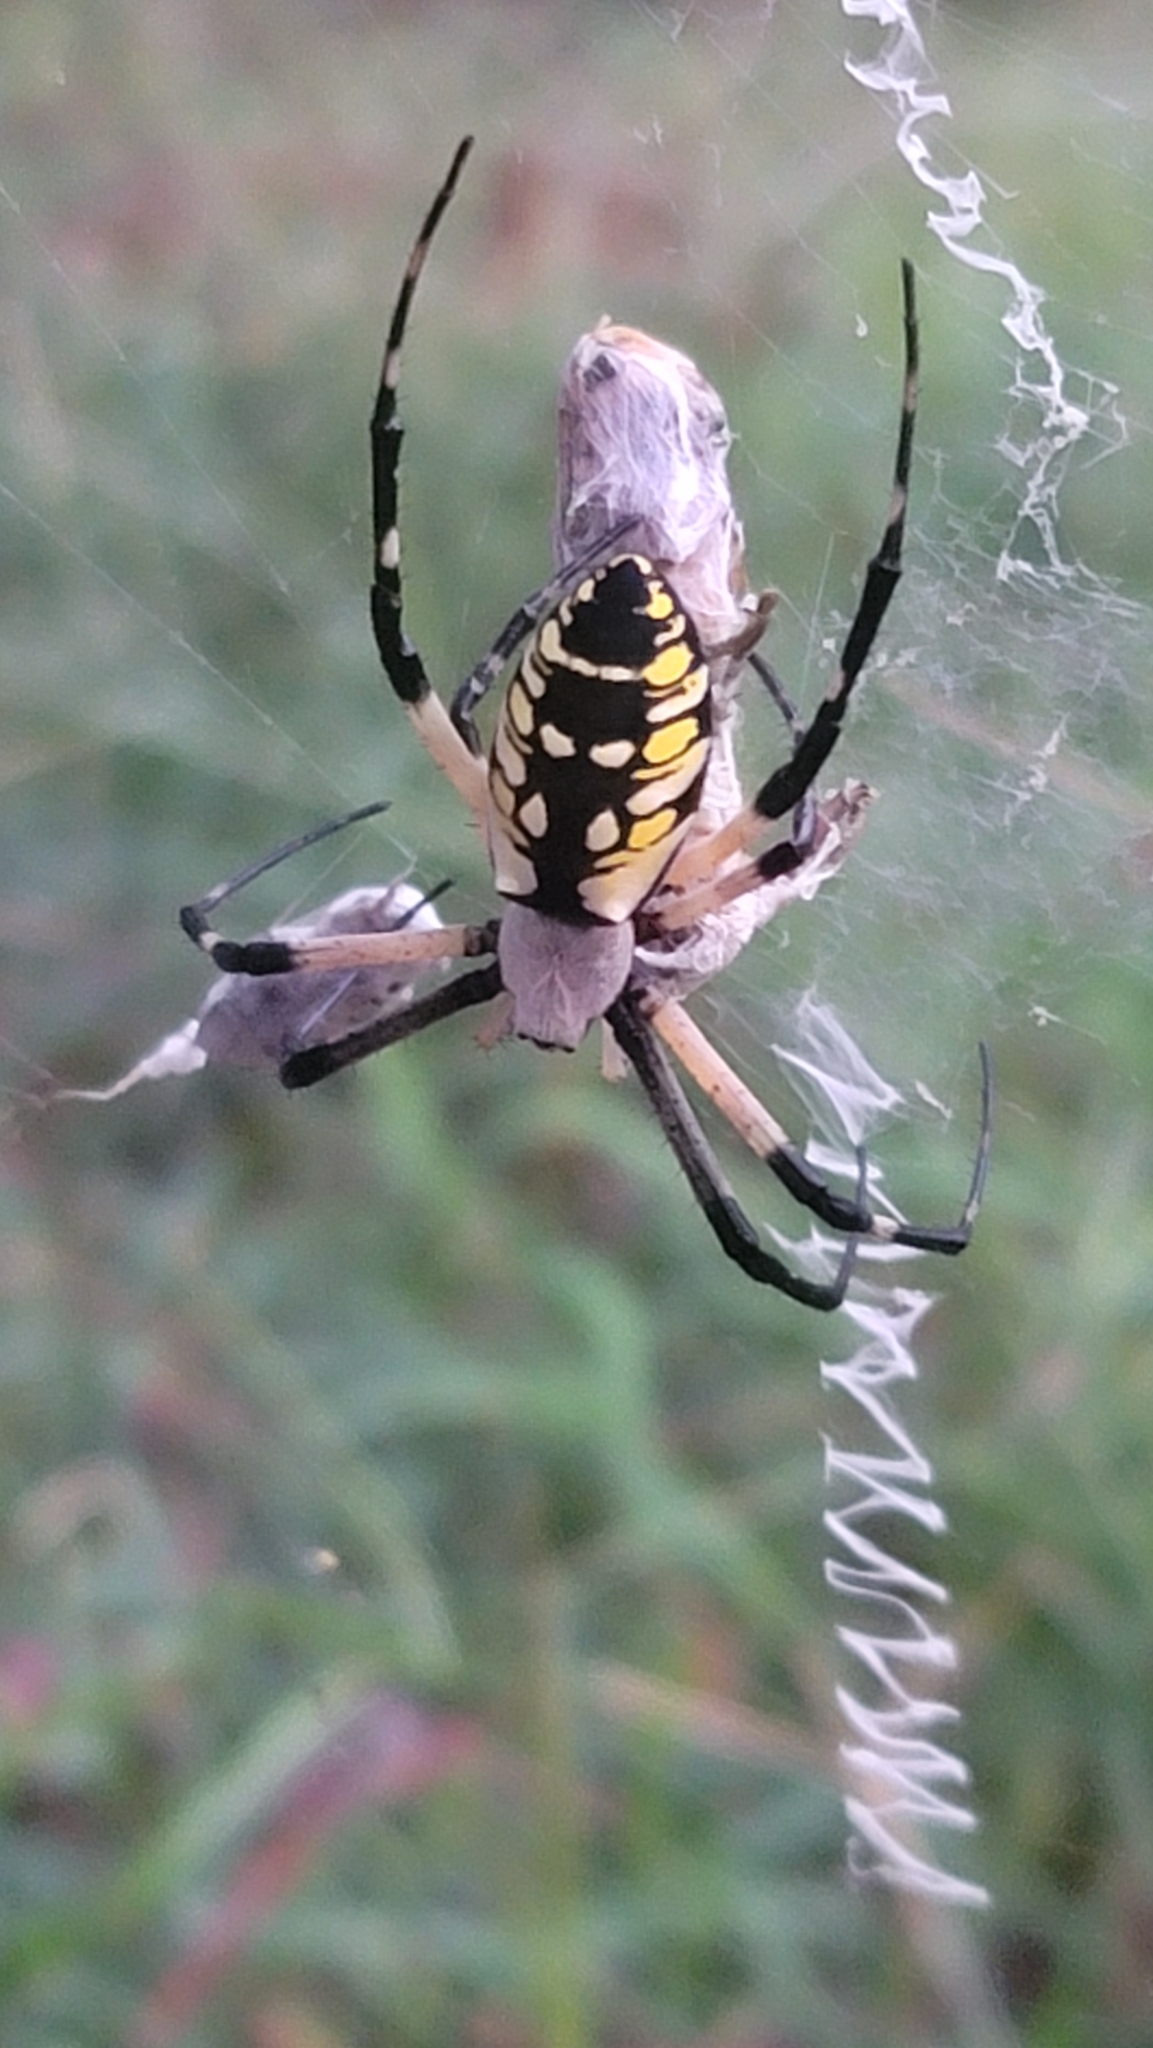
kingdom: Animalia
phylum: Arthropoda
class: Arachnida
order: Araneae
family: Araneidae
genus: Argiope
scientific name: Argiope aurantia
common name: Orb weavers
